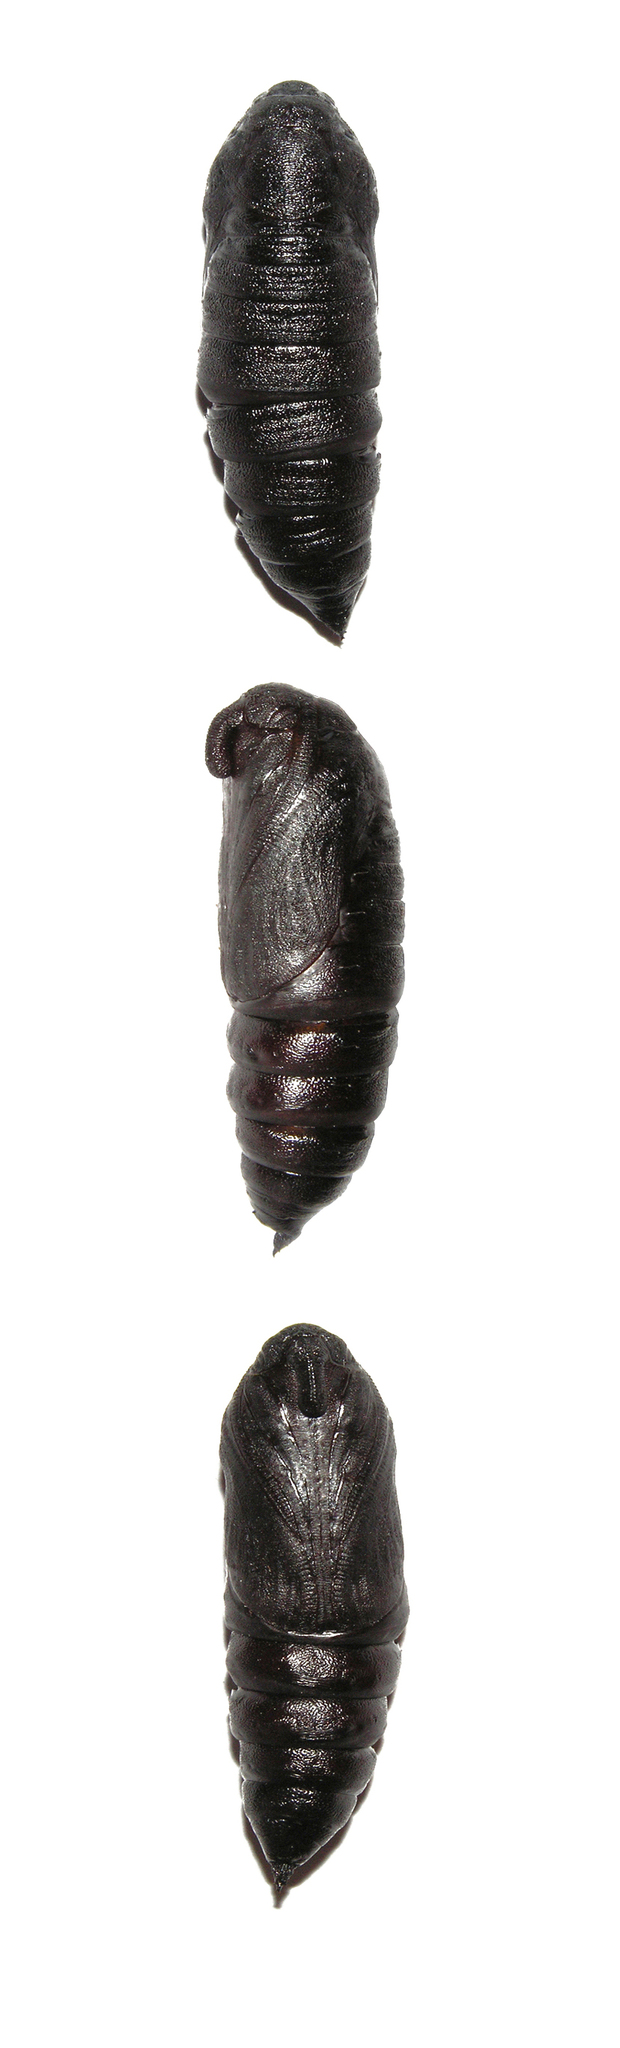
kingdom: Animalia
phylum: Arthropoda
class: Insecta
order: Lepidoptera
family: Sphingidae
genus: Sphinx
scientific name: Sphinx pinastri
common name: Pine hawk-moth
